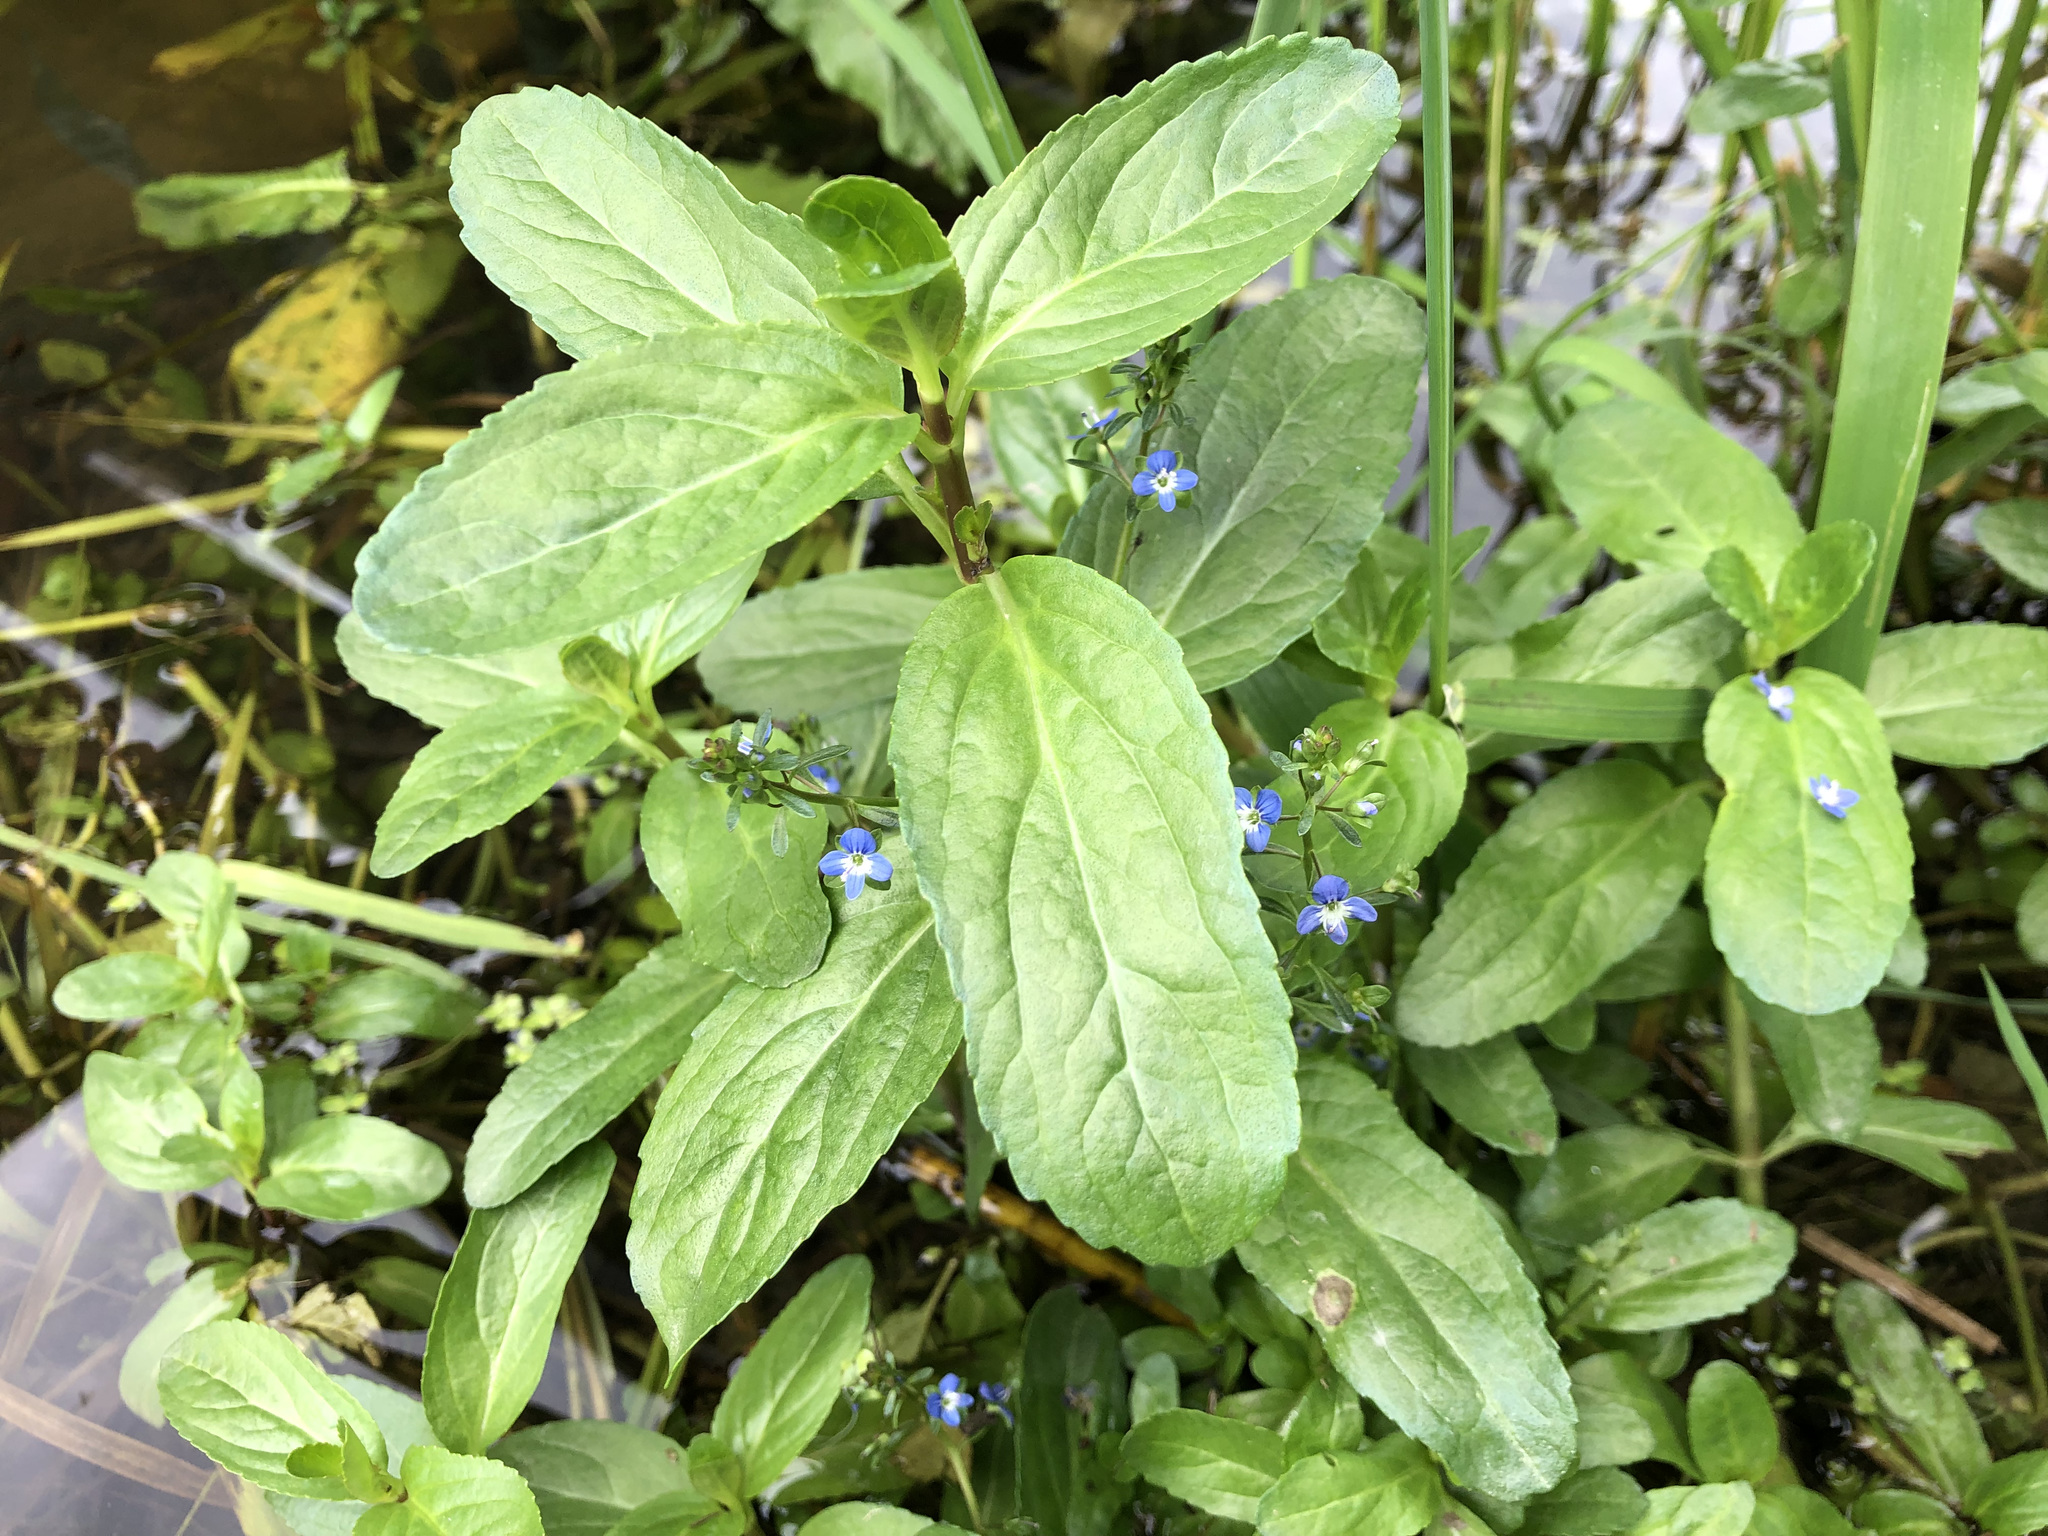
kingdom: Plantae
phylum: Tracheophyta
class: Magnoliopsida
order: Lamiales
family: Plantaginaceae
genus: Veronica
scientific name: Veronica beccabunga
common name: Brooklime
